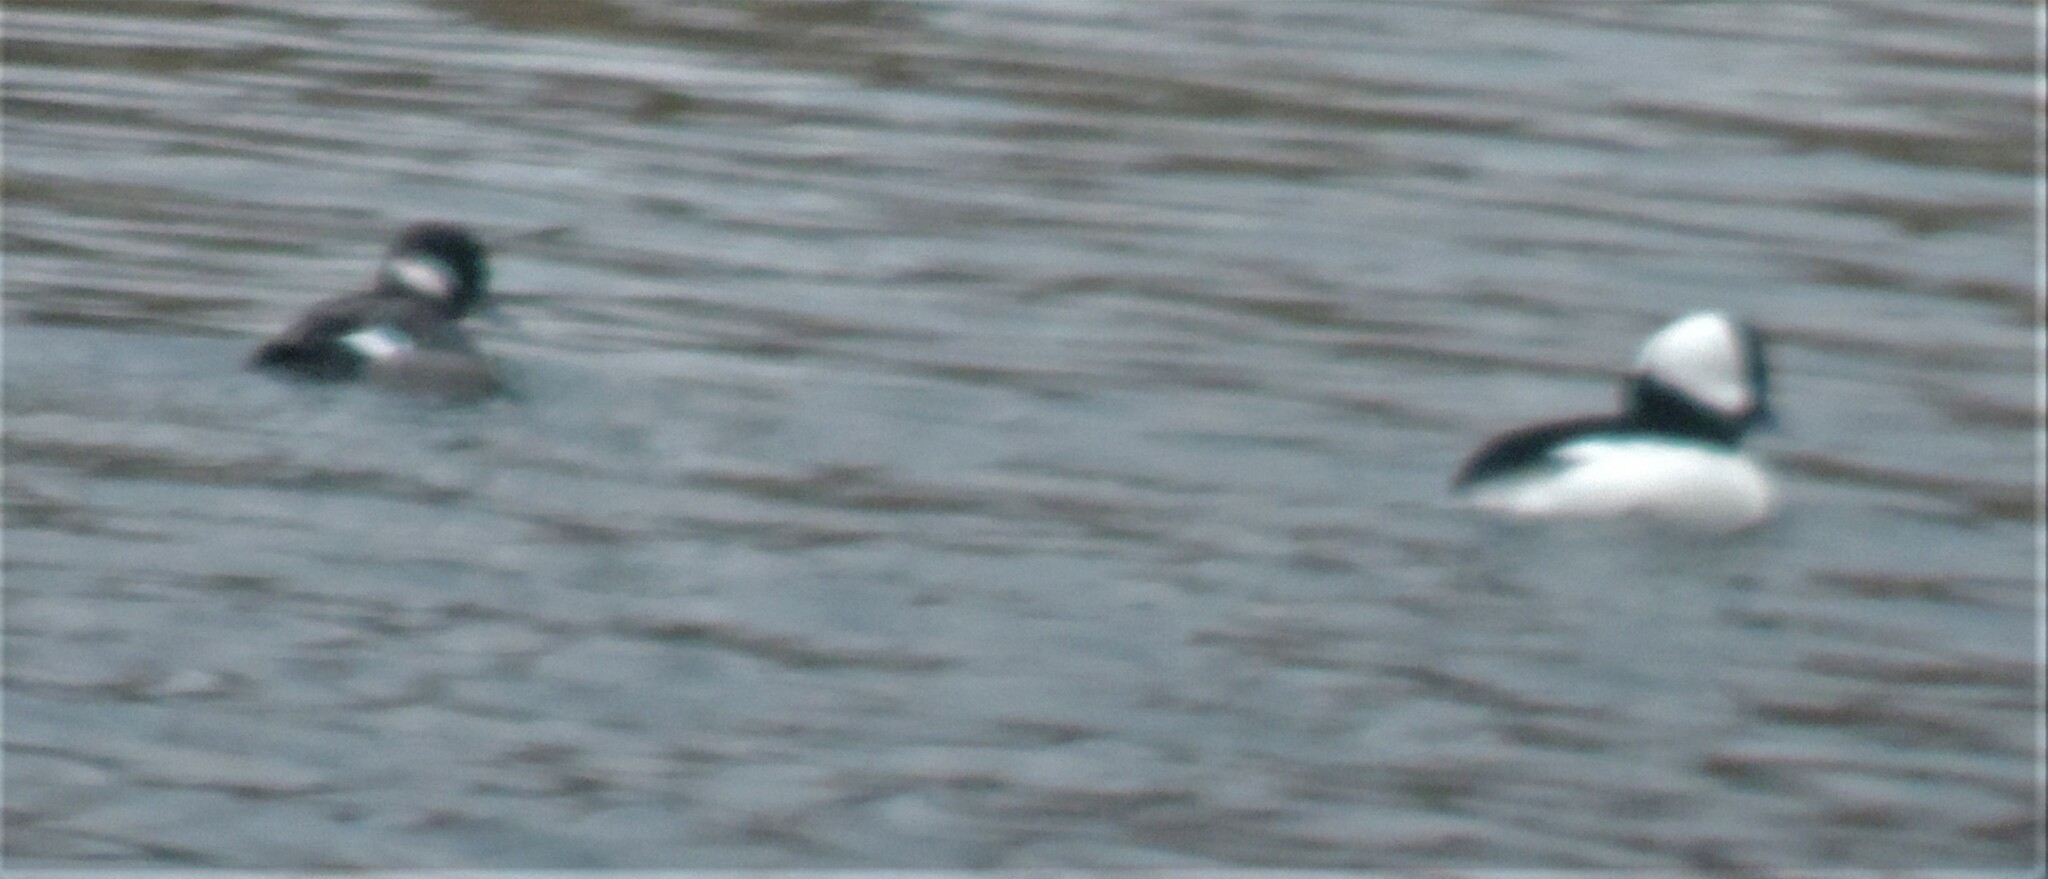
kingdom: Animalia
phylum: Chordata
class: Aves
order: Anseriformes
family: Anatidae
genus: Bucephala
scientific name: Bucephala albeola
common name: Bufflehead
